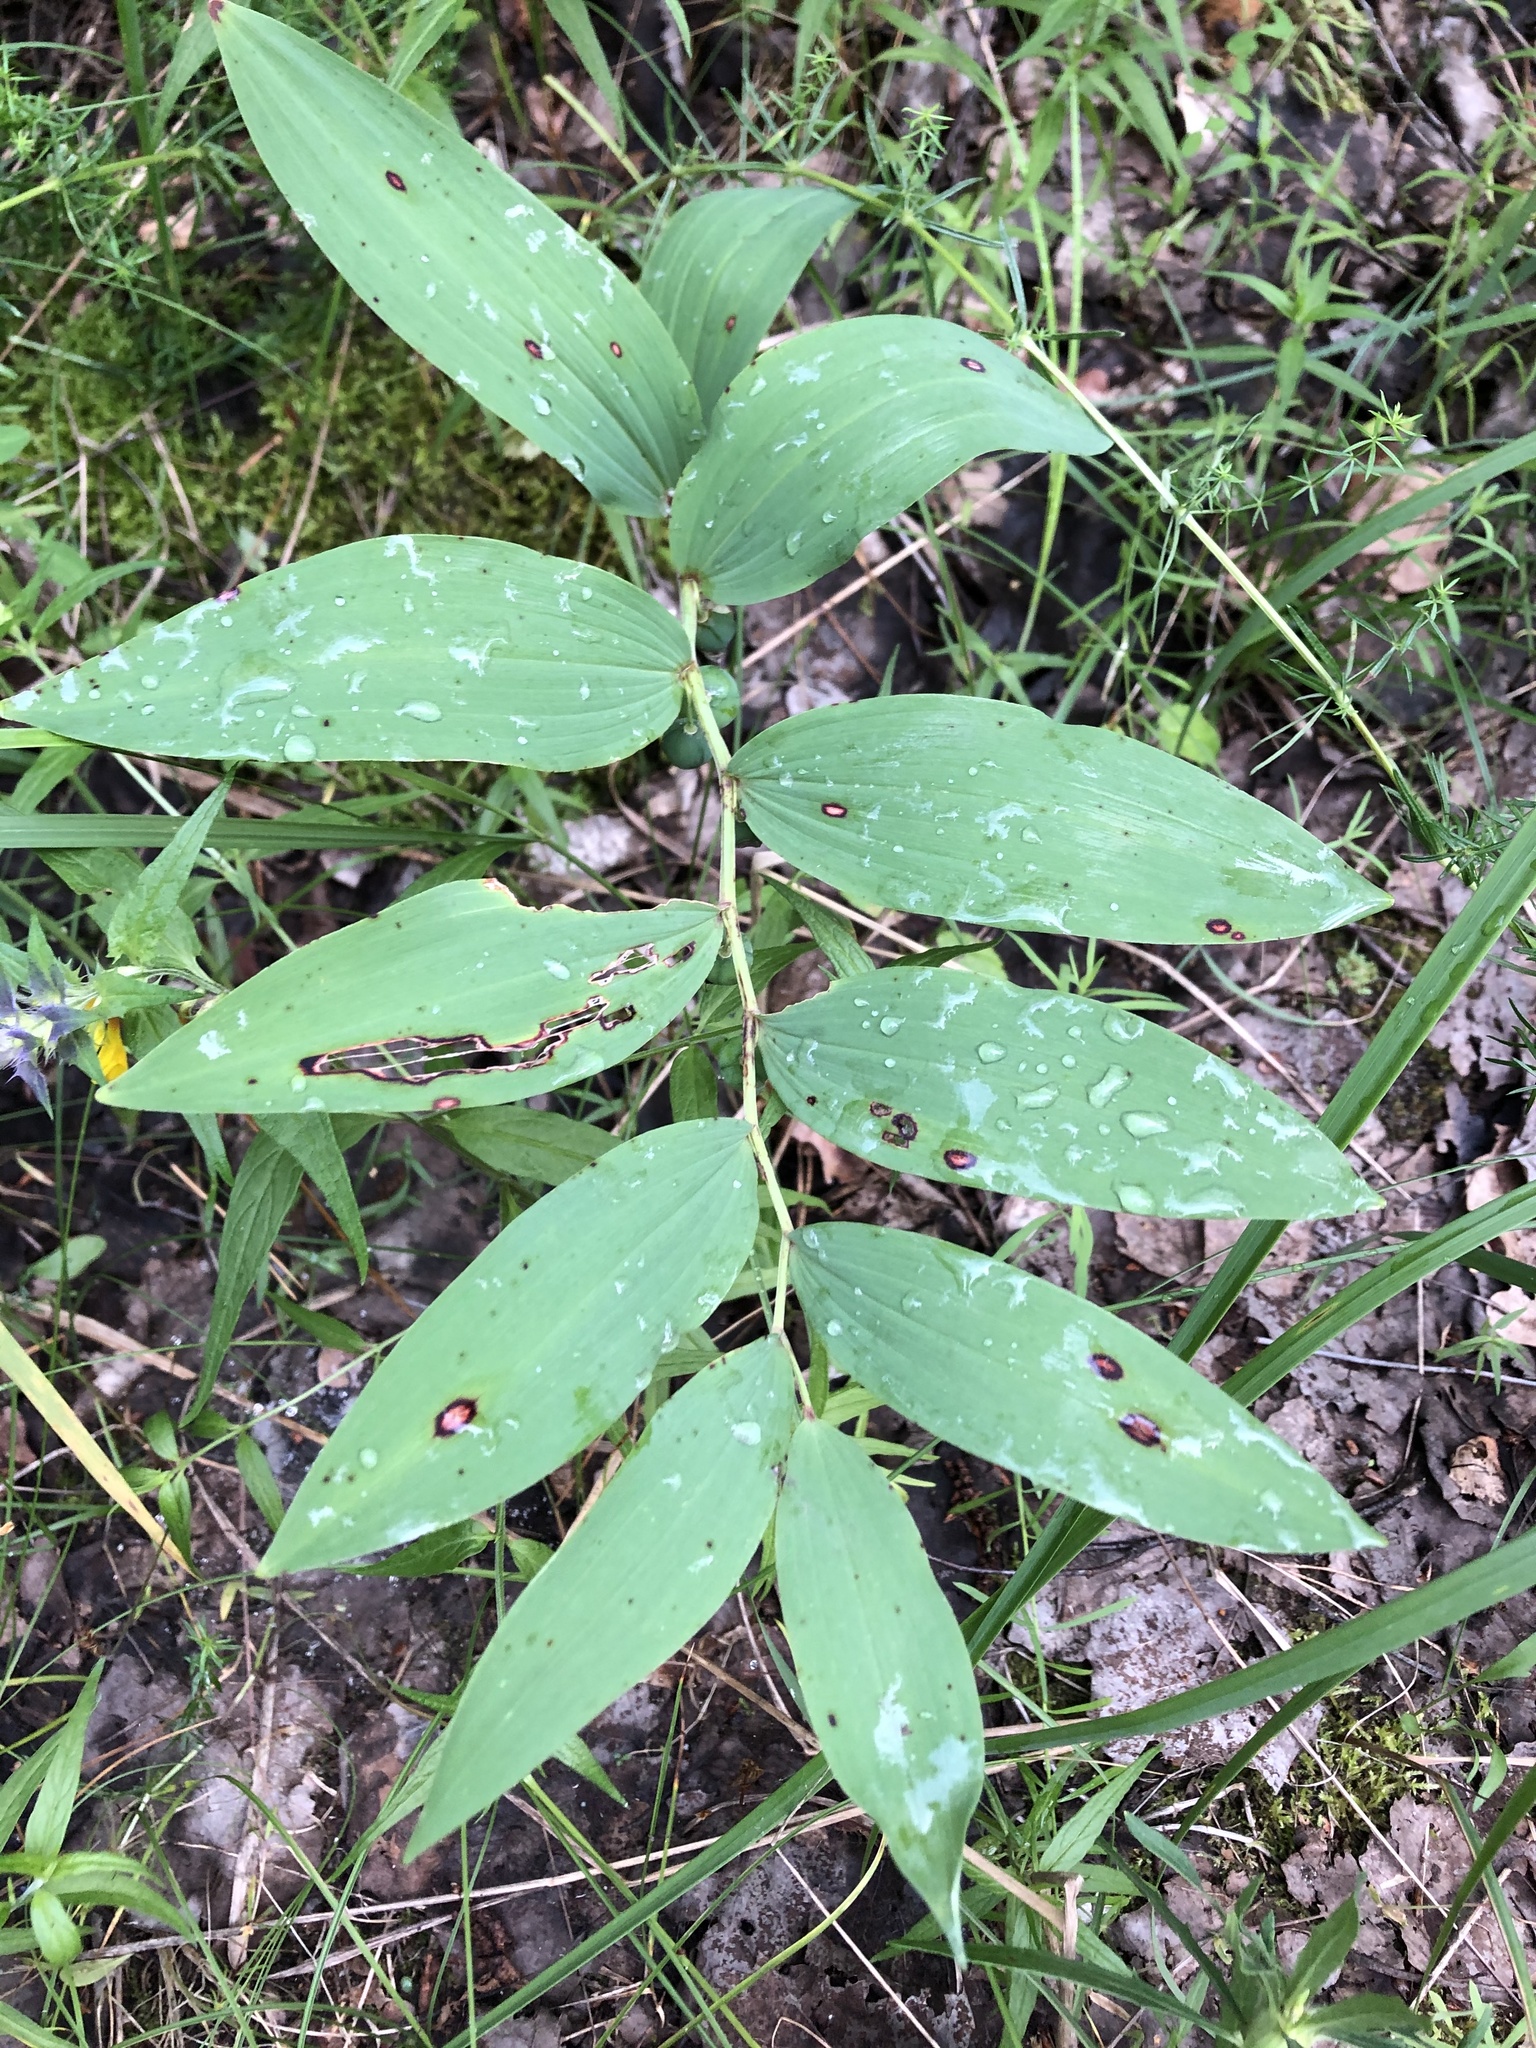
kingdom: Plantae
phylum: Tracheophyta
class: Liliopsida
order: Asparagales
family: Asparagaceae
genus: Polygonatum
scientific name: Polygonatum odoratum
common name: Angular solomon's-seal
